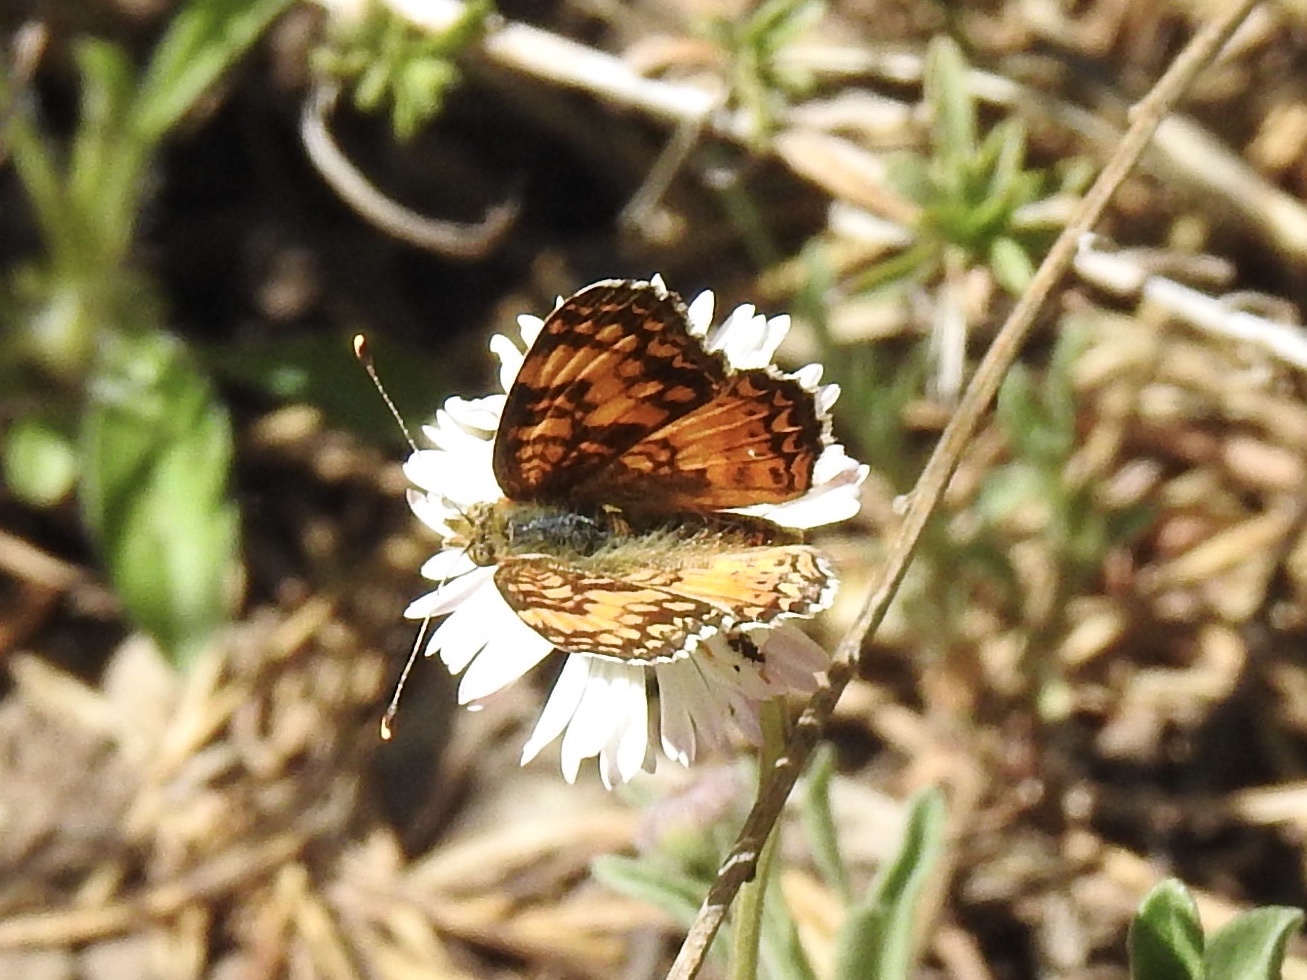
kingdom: Animalia
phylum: Arthropoda
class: Insecta
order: Lepidoptera
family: Nymphalidae
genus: Eresia
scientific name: Eresia aveyrona
